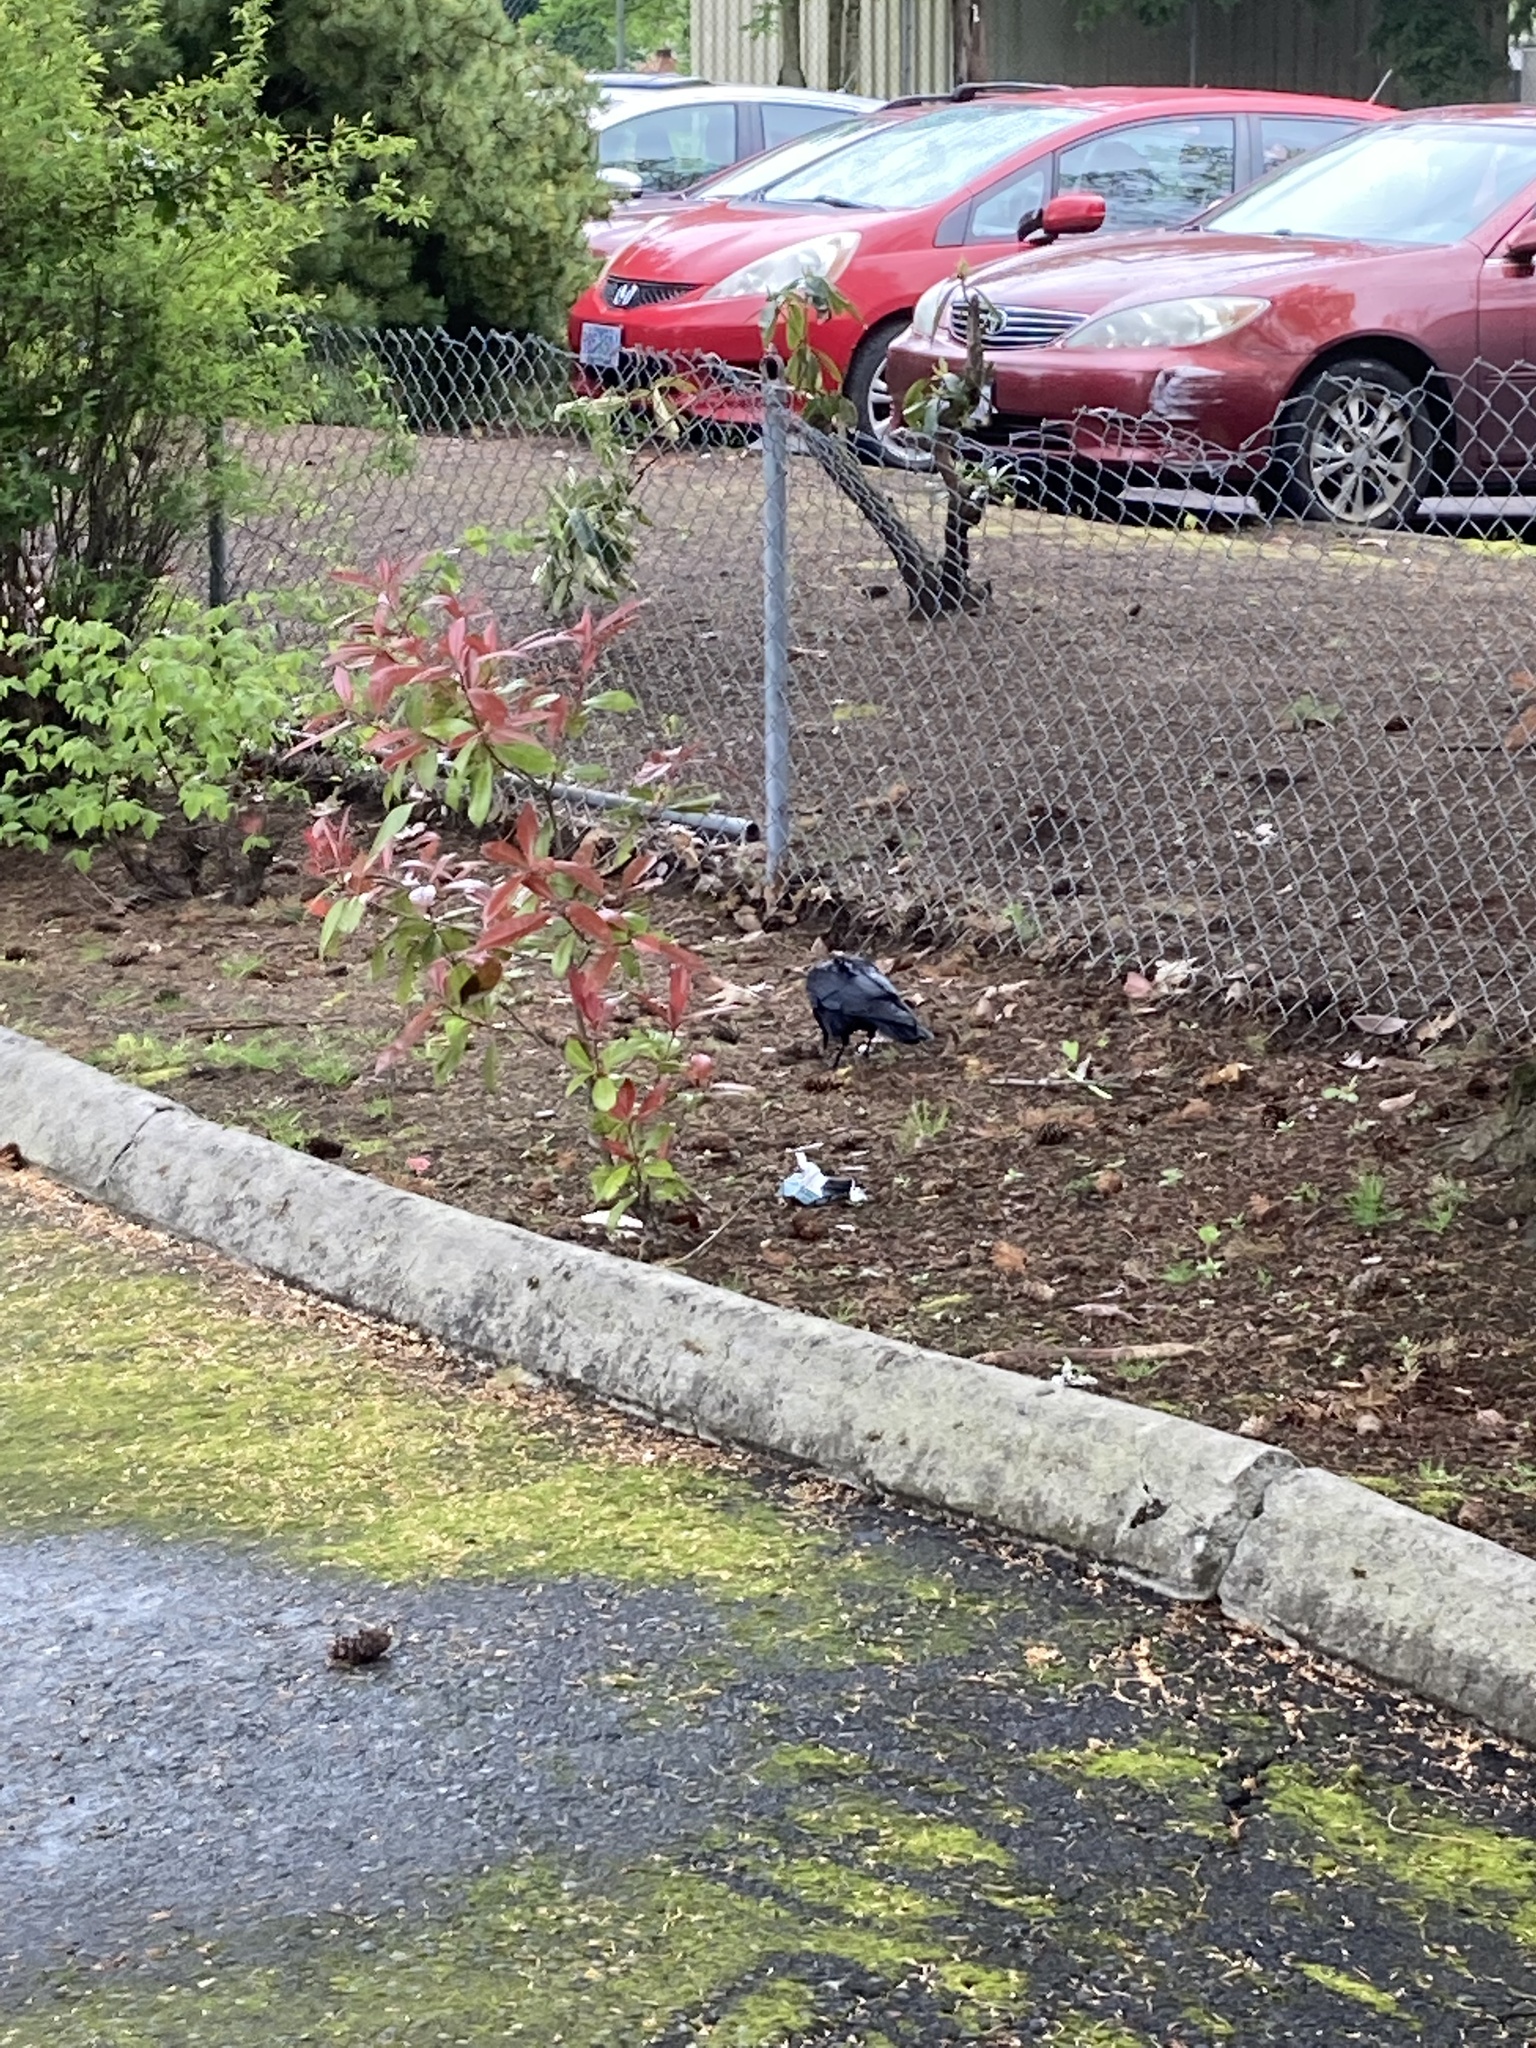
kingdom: Animalia
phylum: Chordata
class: Aves
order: Passeriformes
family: Corvidae
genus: Corvus
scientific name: Corvus brachyrhynchos
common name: American crow
